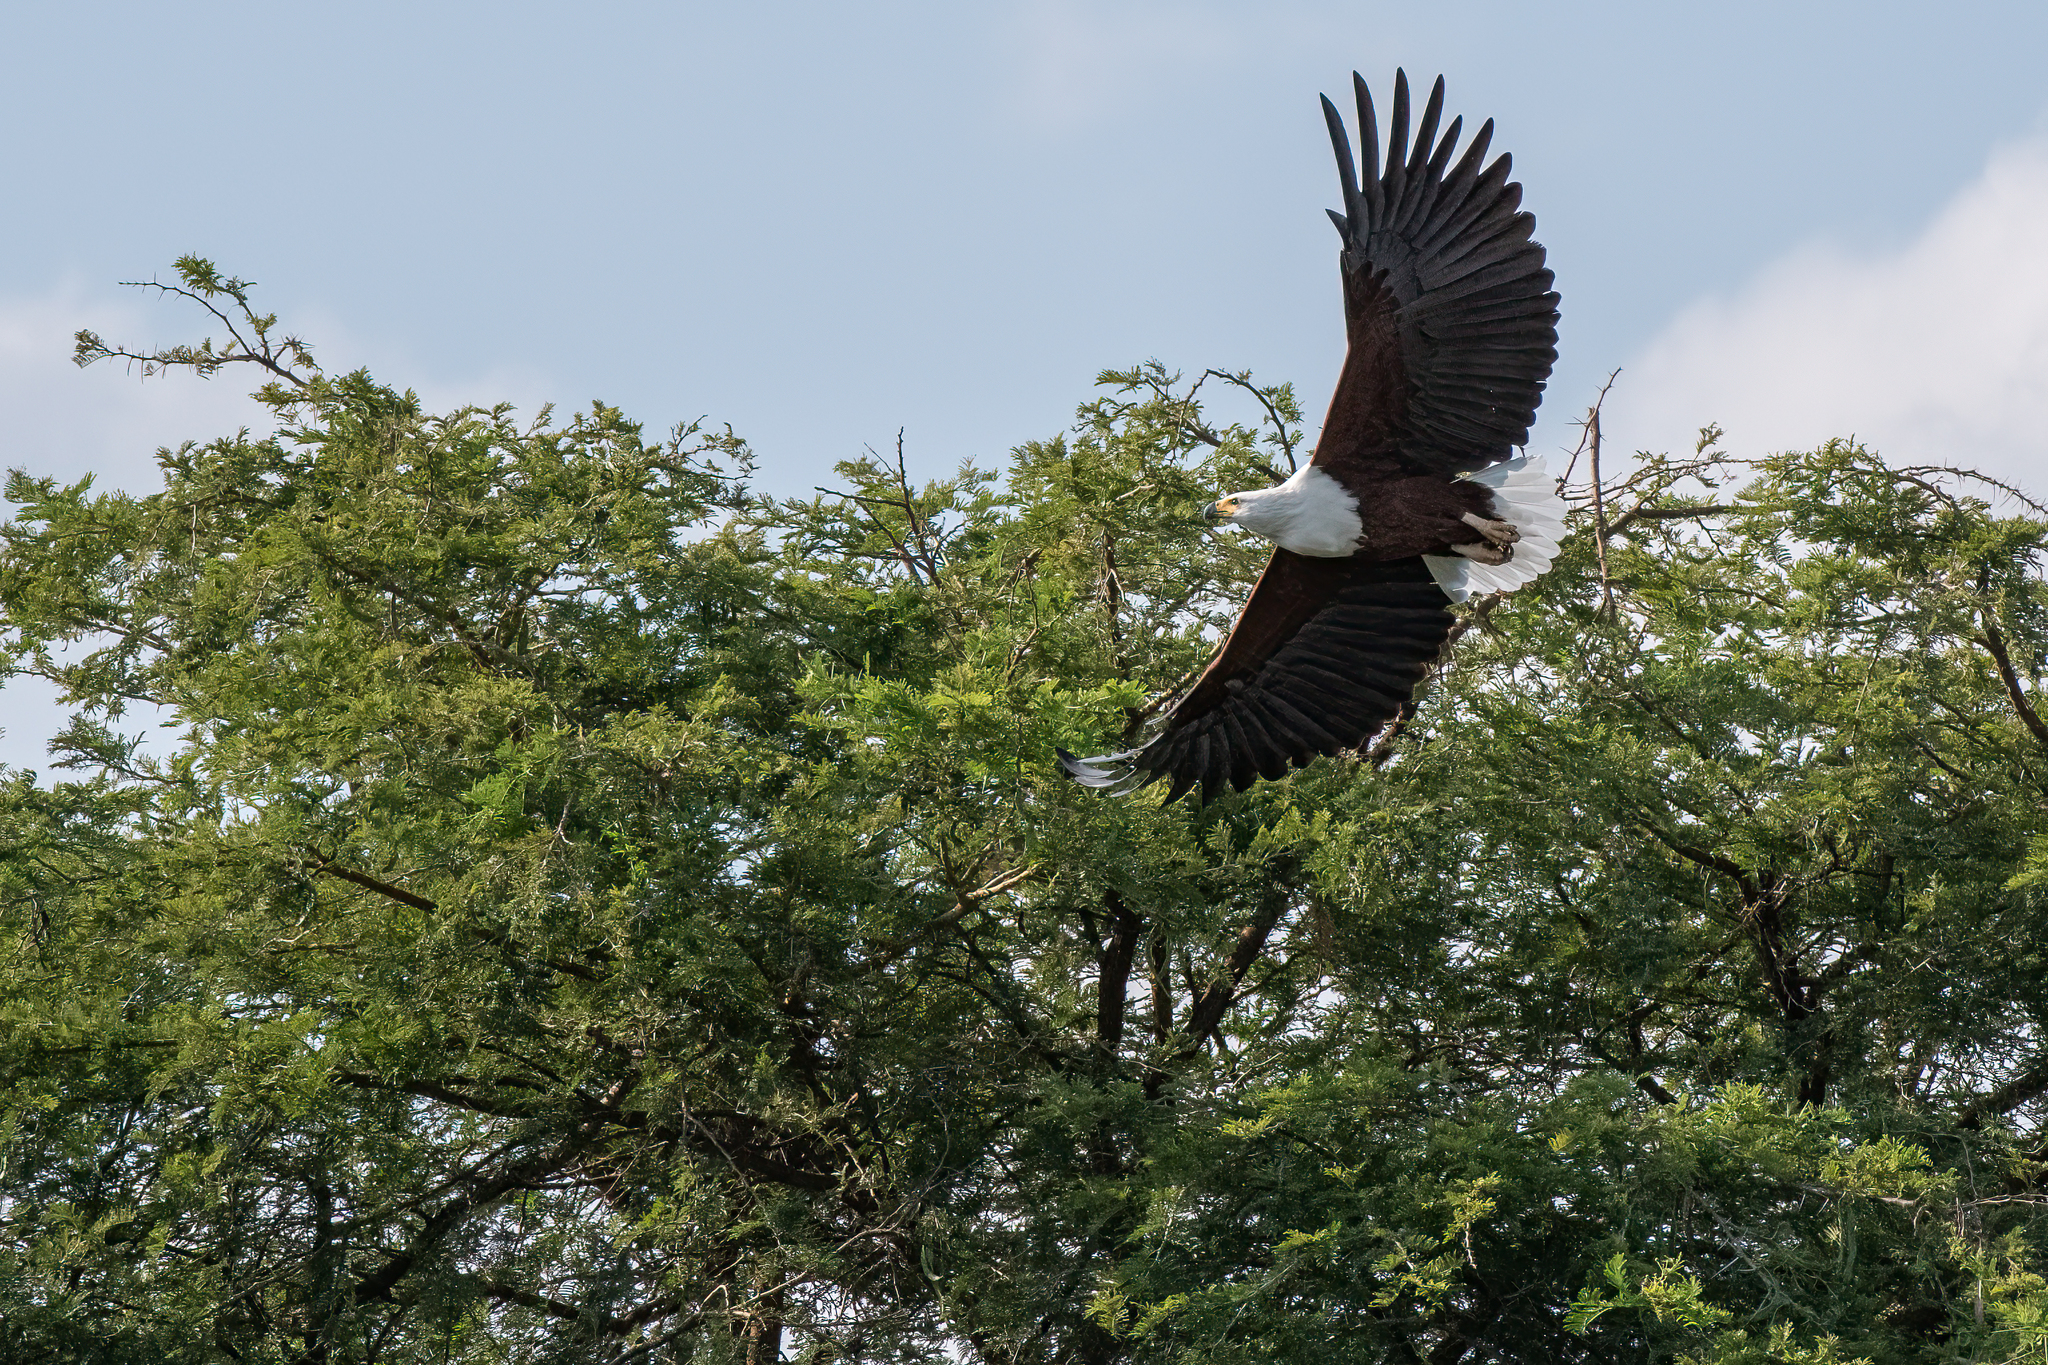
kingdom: Animalia
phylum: Chordata
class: Aves
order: Accipitriformes
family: Accipitridae
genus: Haliaeetus
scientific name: Haliaeetus vocifer
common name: African fish eagle
